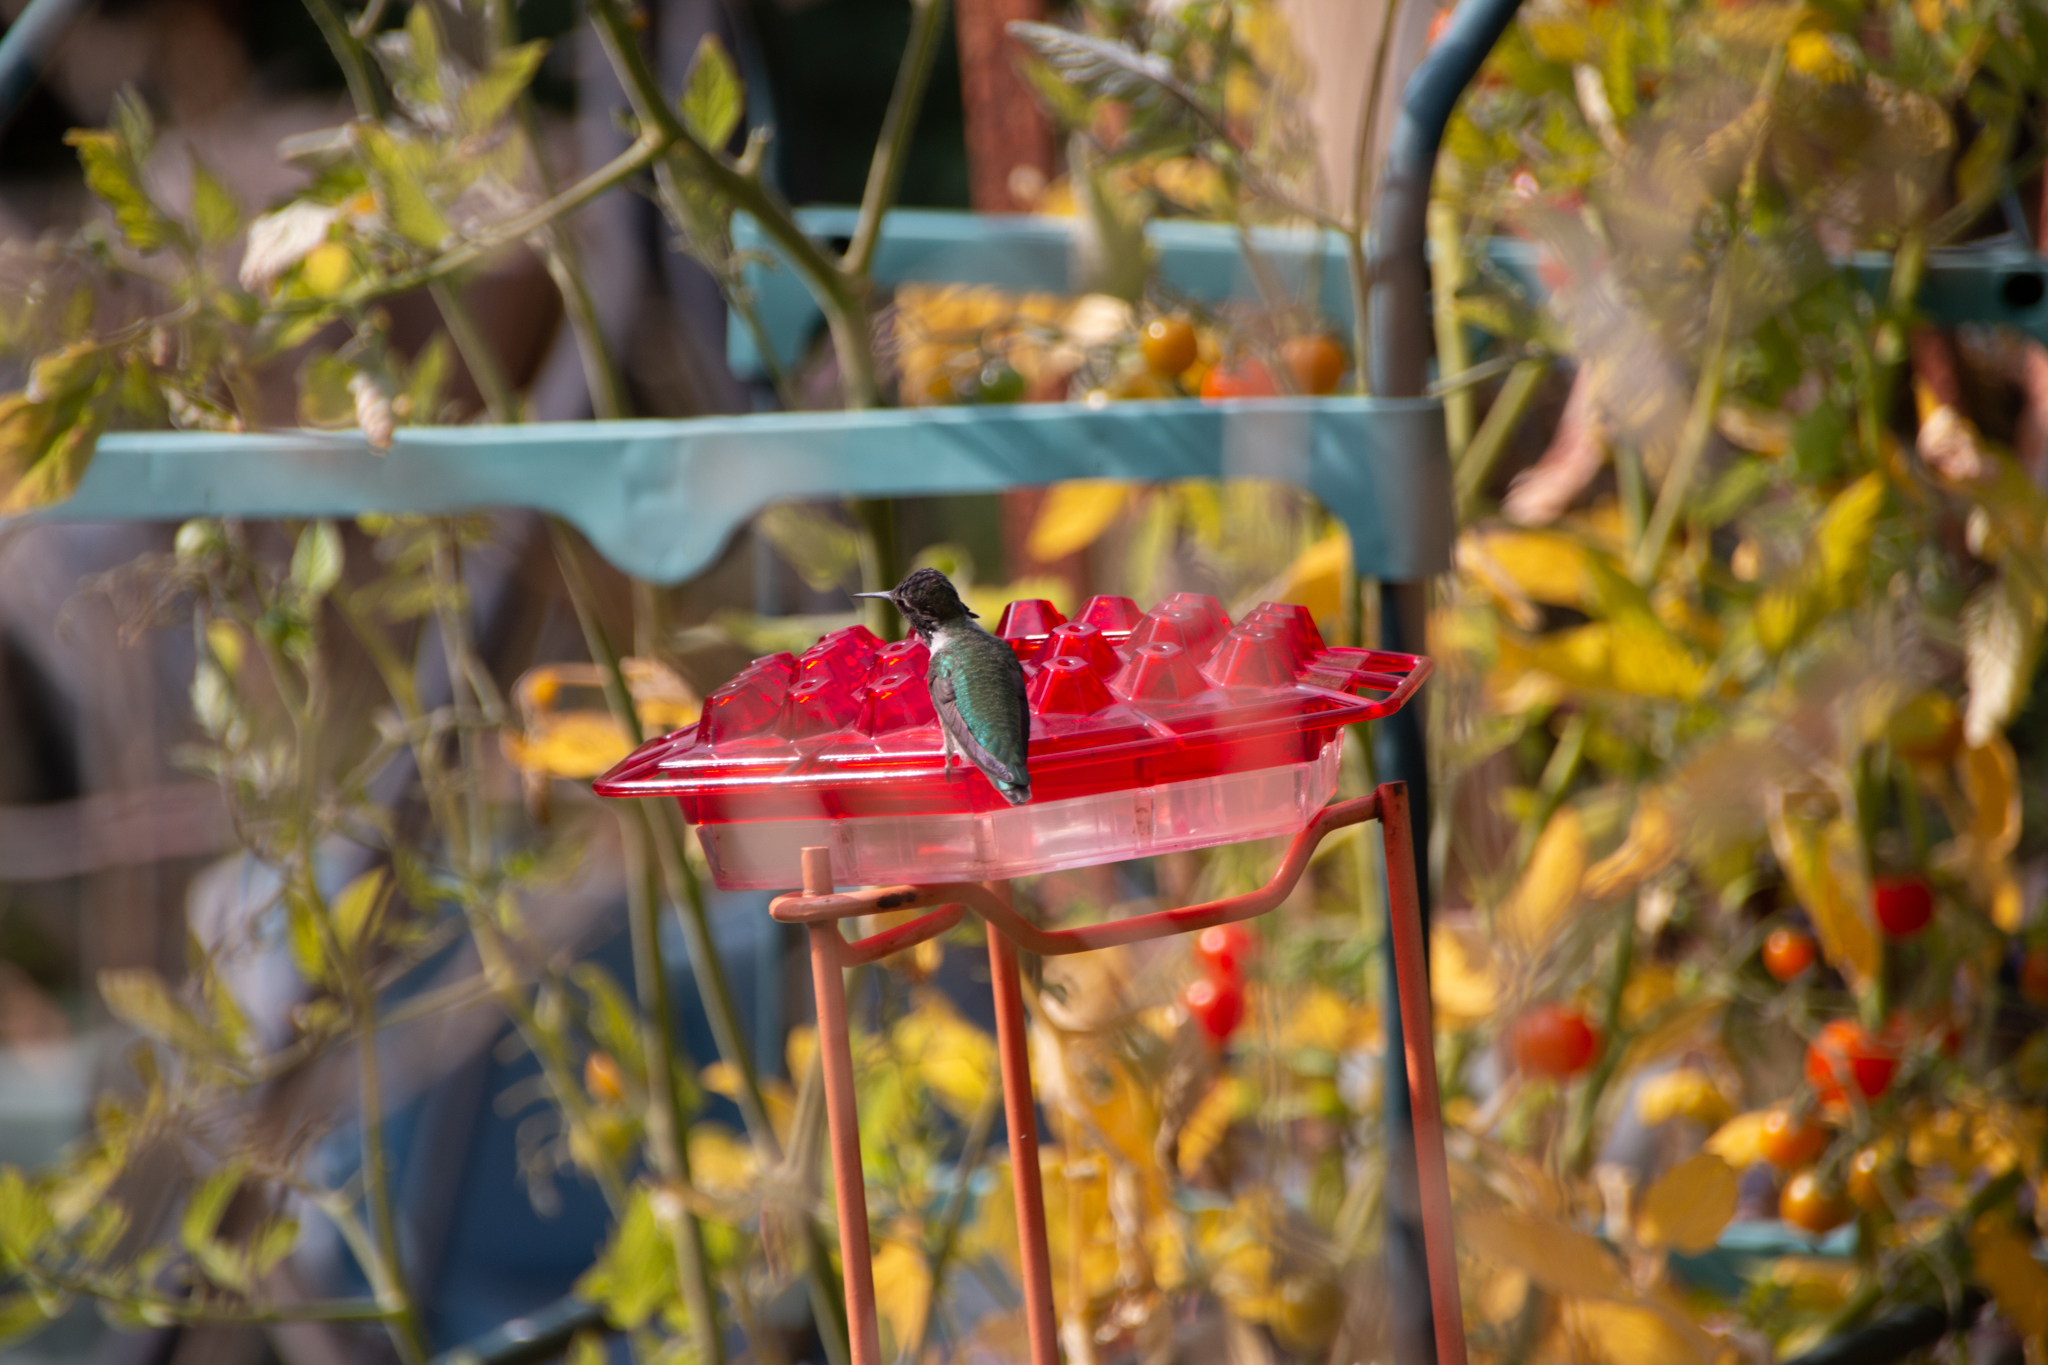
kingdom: Animalia
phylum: Chordata
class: Aves
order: Apodiformes
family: Trochilidae
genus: Calypte
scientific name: Calypte anna
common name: Anna's hummingbird
